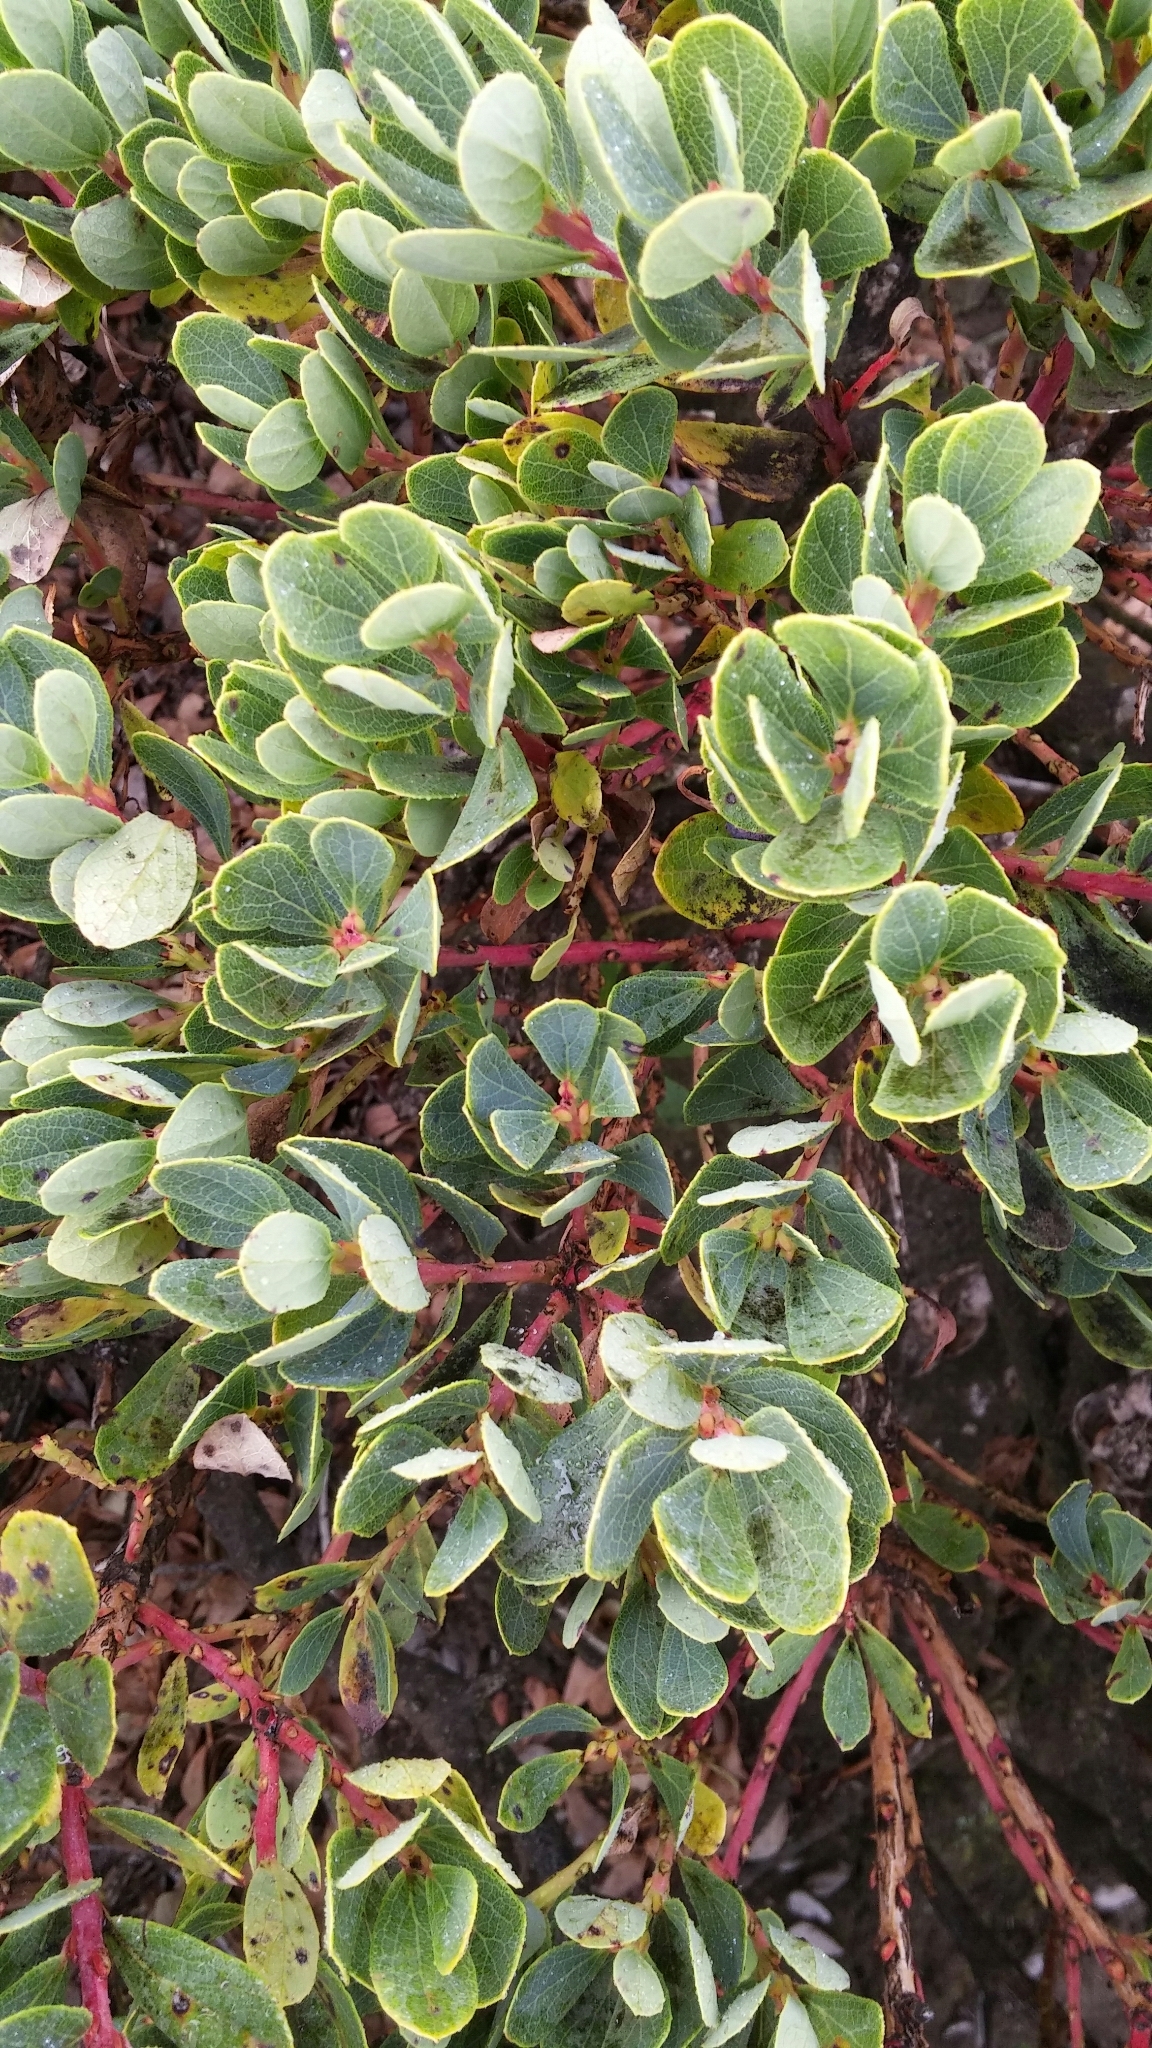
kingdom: Plantae
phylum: Tracheophyta
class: Magnoliopsida
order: Ericales
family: Ericaceae
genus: Vaccinium
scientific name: Vaccinium reticulatum
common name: Ohelo
